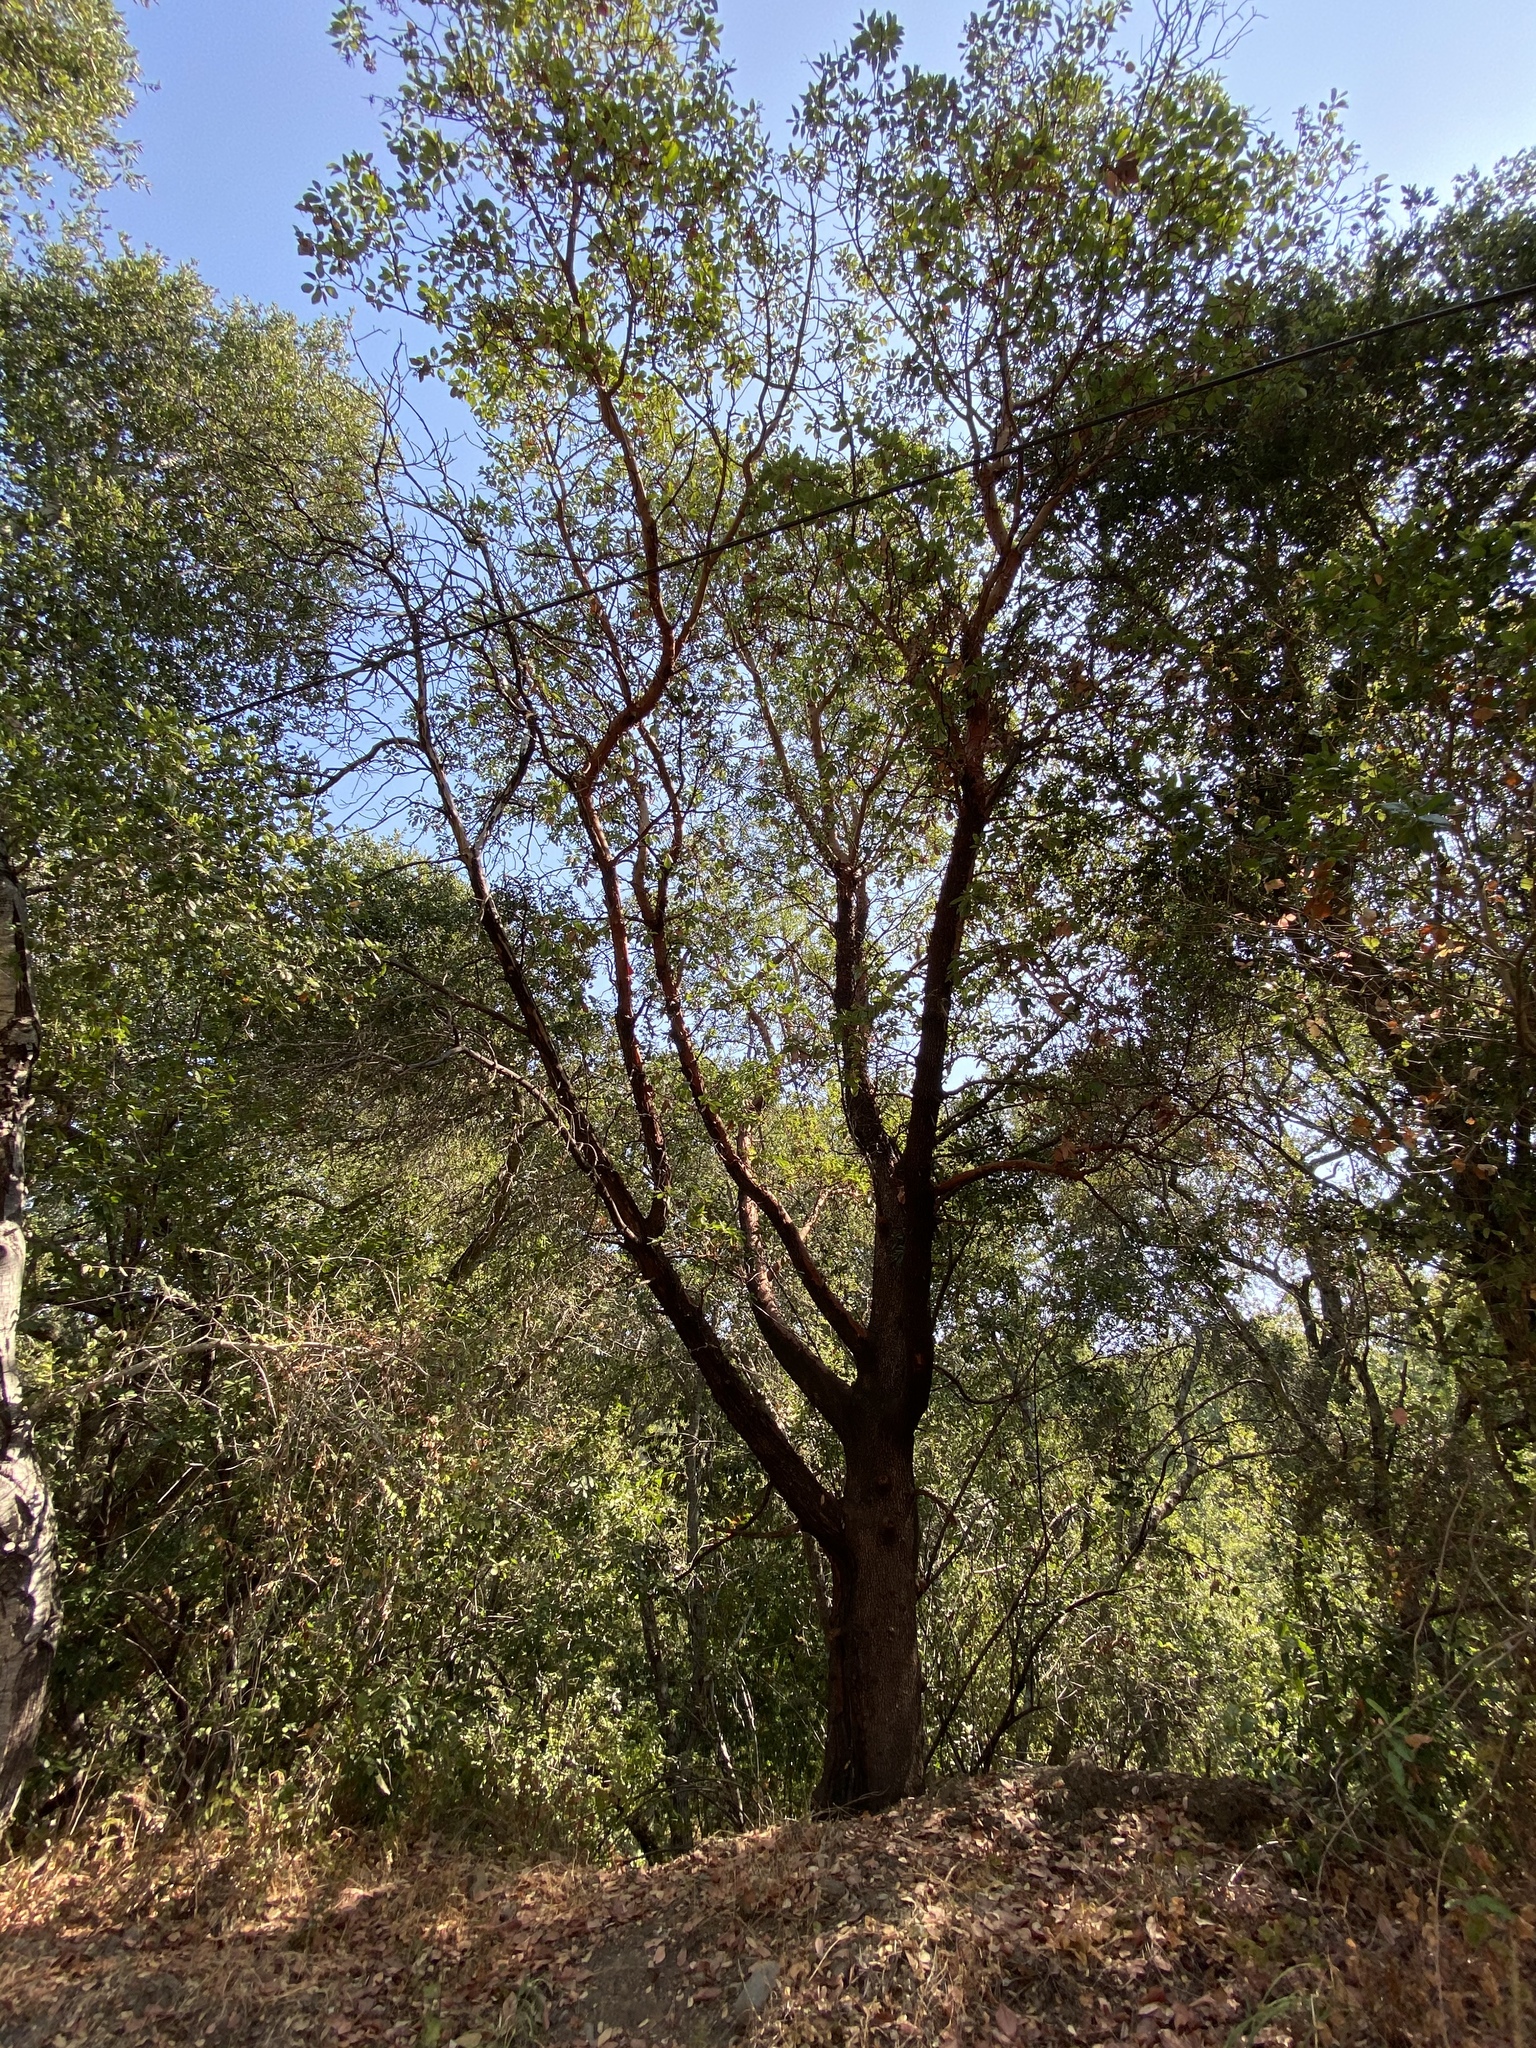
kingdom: Plantae
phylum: Tracheophyta
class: Magnoliopsida
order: Ericales
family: Ericaceae
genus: Arbutus
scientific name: Arbutus menziesii
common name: Pacific madrone
